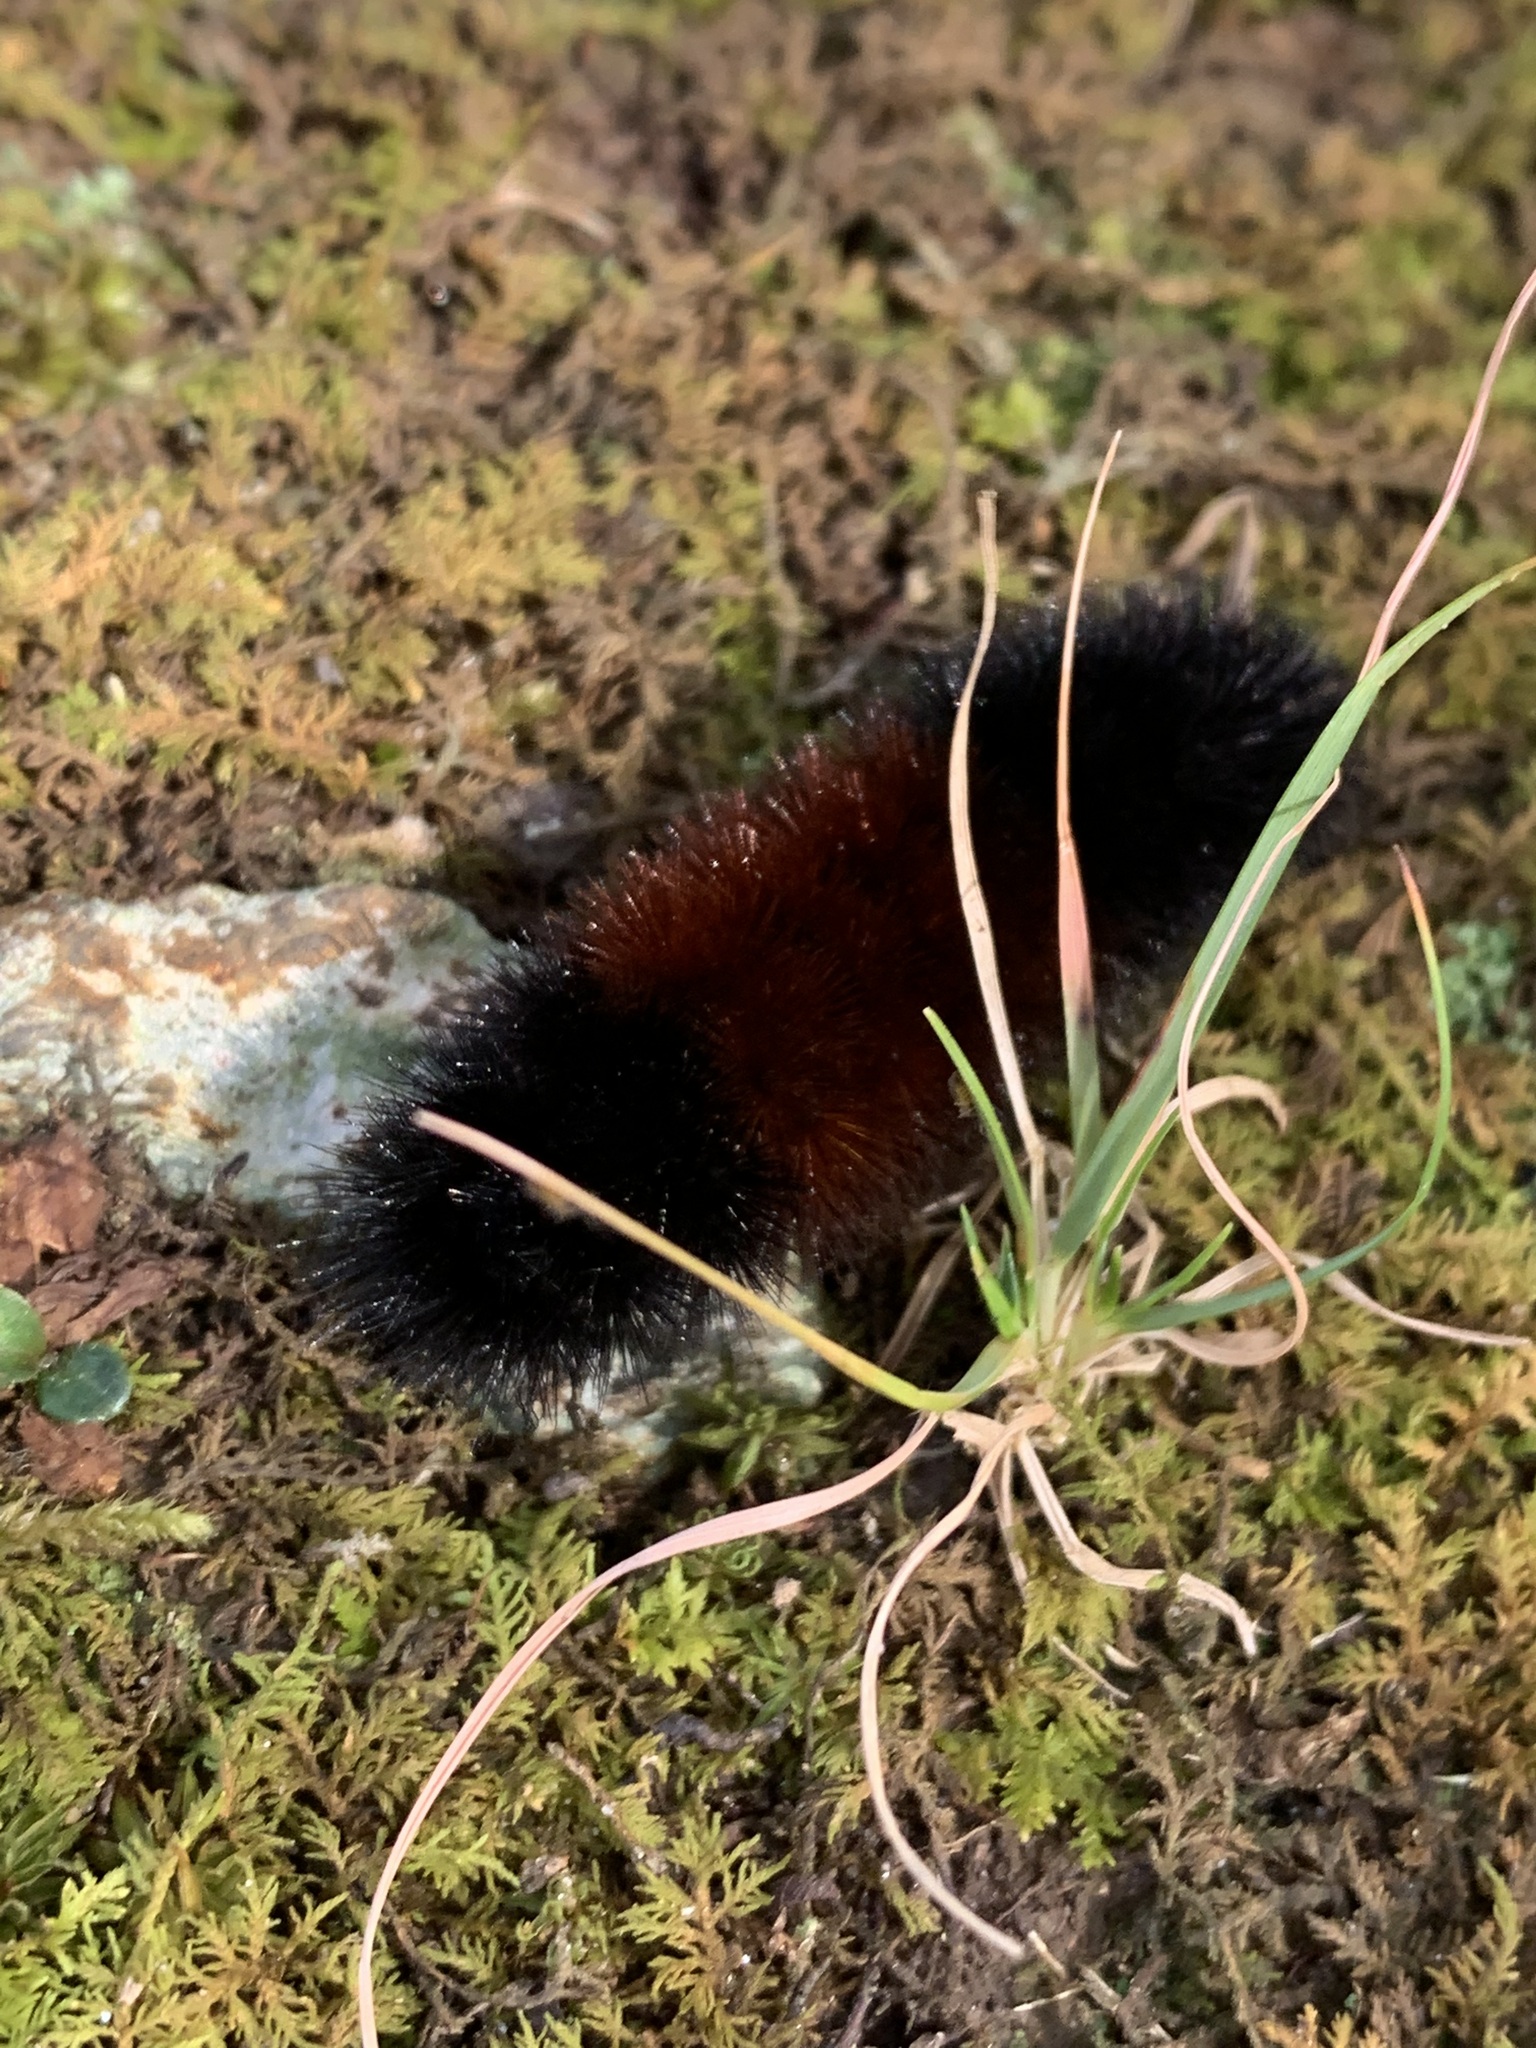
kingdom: Animalia
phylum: Arthropoda
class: Insecta
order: Lepidoptera
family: Erebidae
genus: Pyrrharctia
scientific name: Pyrrharctia isabella
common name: Isabella tiger moth
